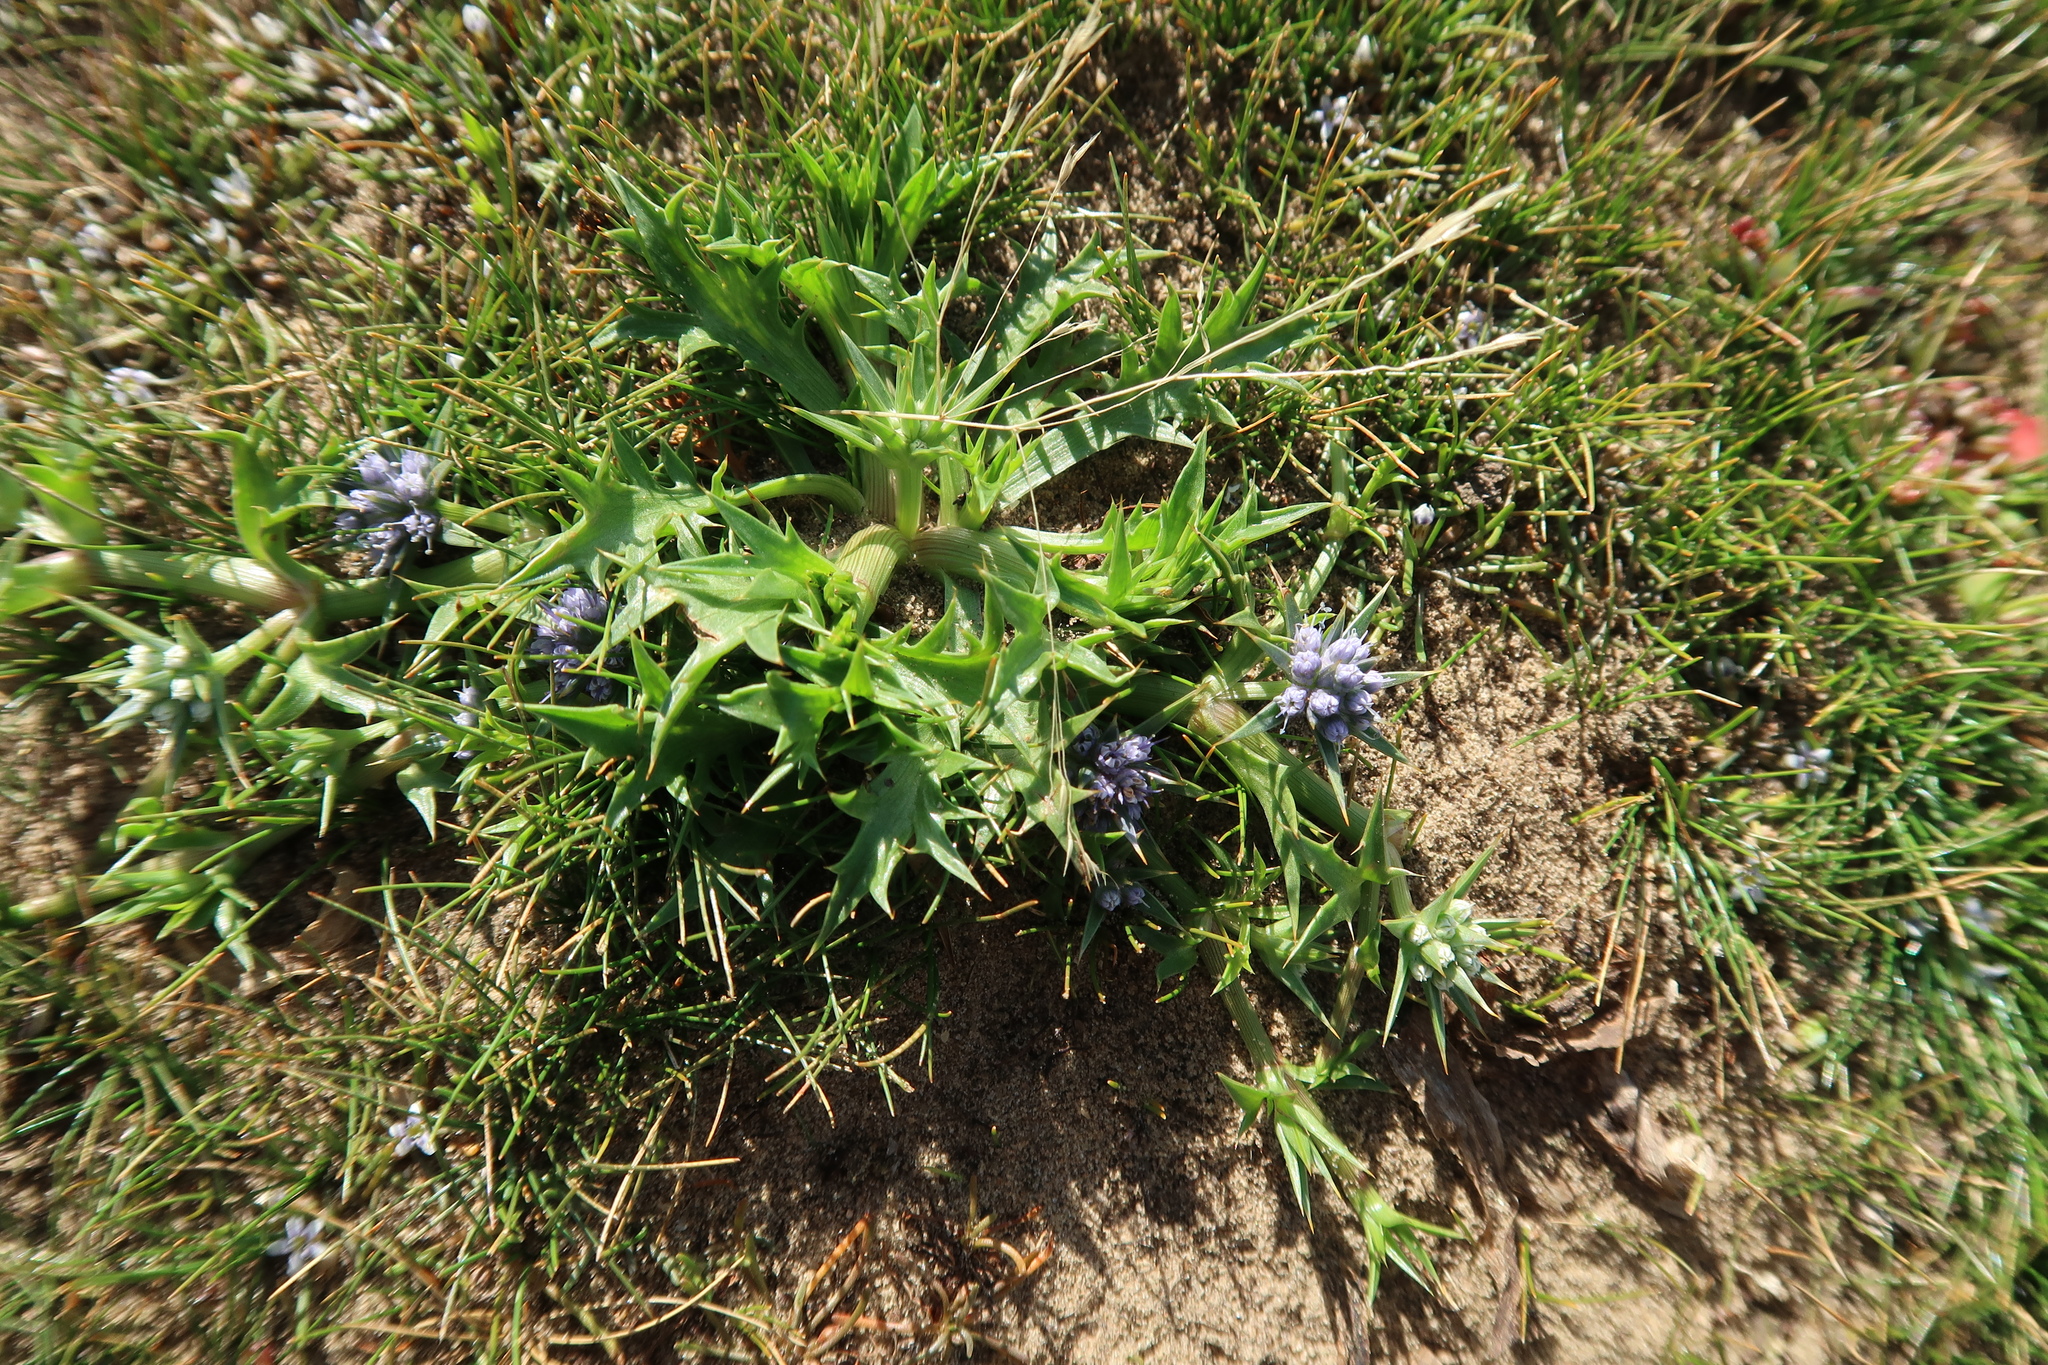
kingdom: Plantae
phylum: Tracheophyta
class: Magnoliopsida
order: Apiales
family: Apiaceae
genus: Eryngium
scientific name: Eryngium vesiculosum
